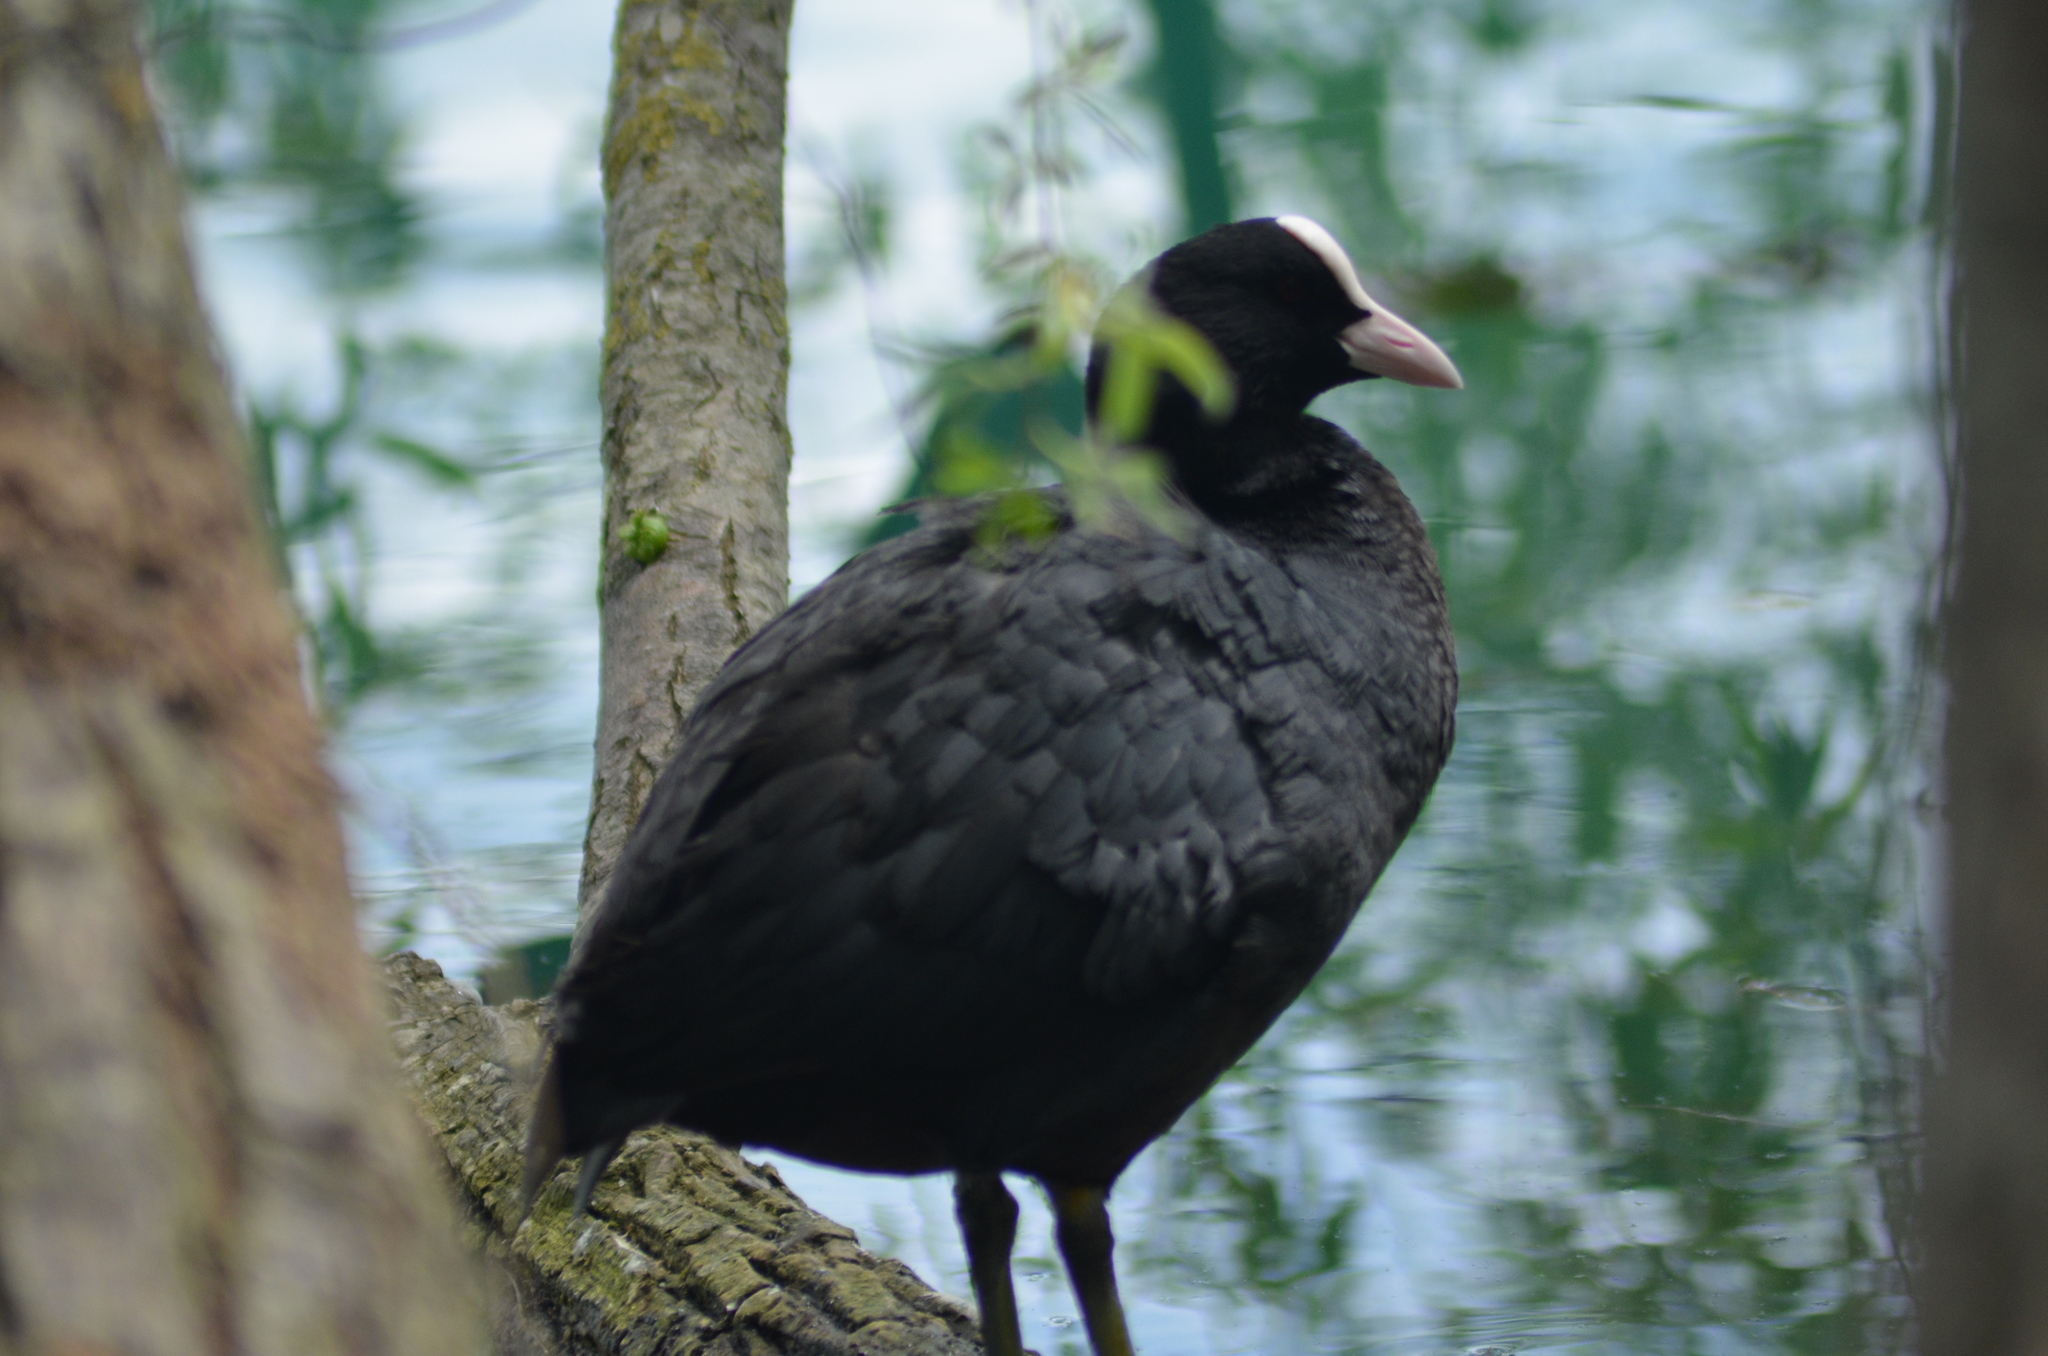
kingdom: Animalia
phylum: Chordata
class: Aves
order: Gruiformes
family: Rallidae
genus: Fulica
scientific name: Fulica atra
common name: Eurasian coot
